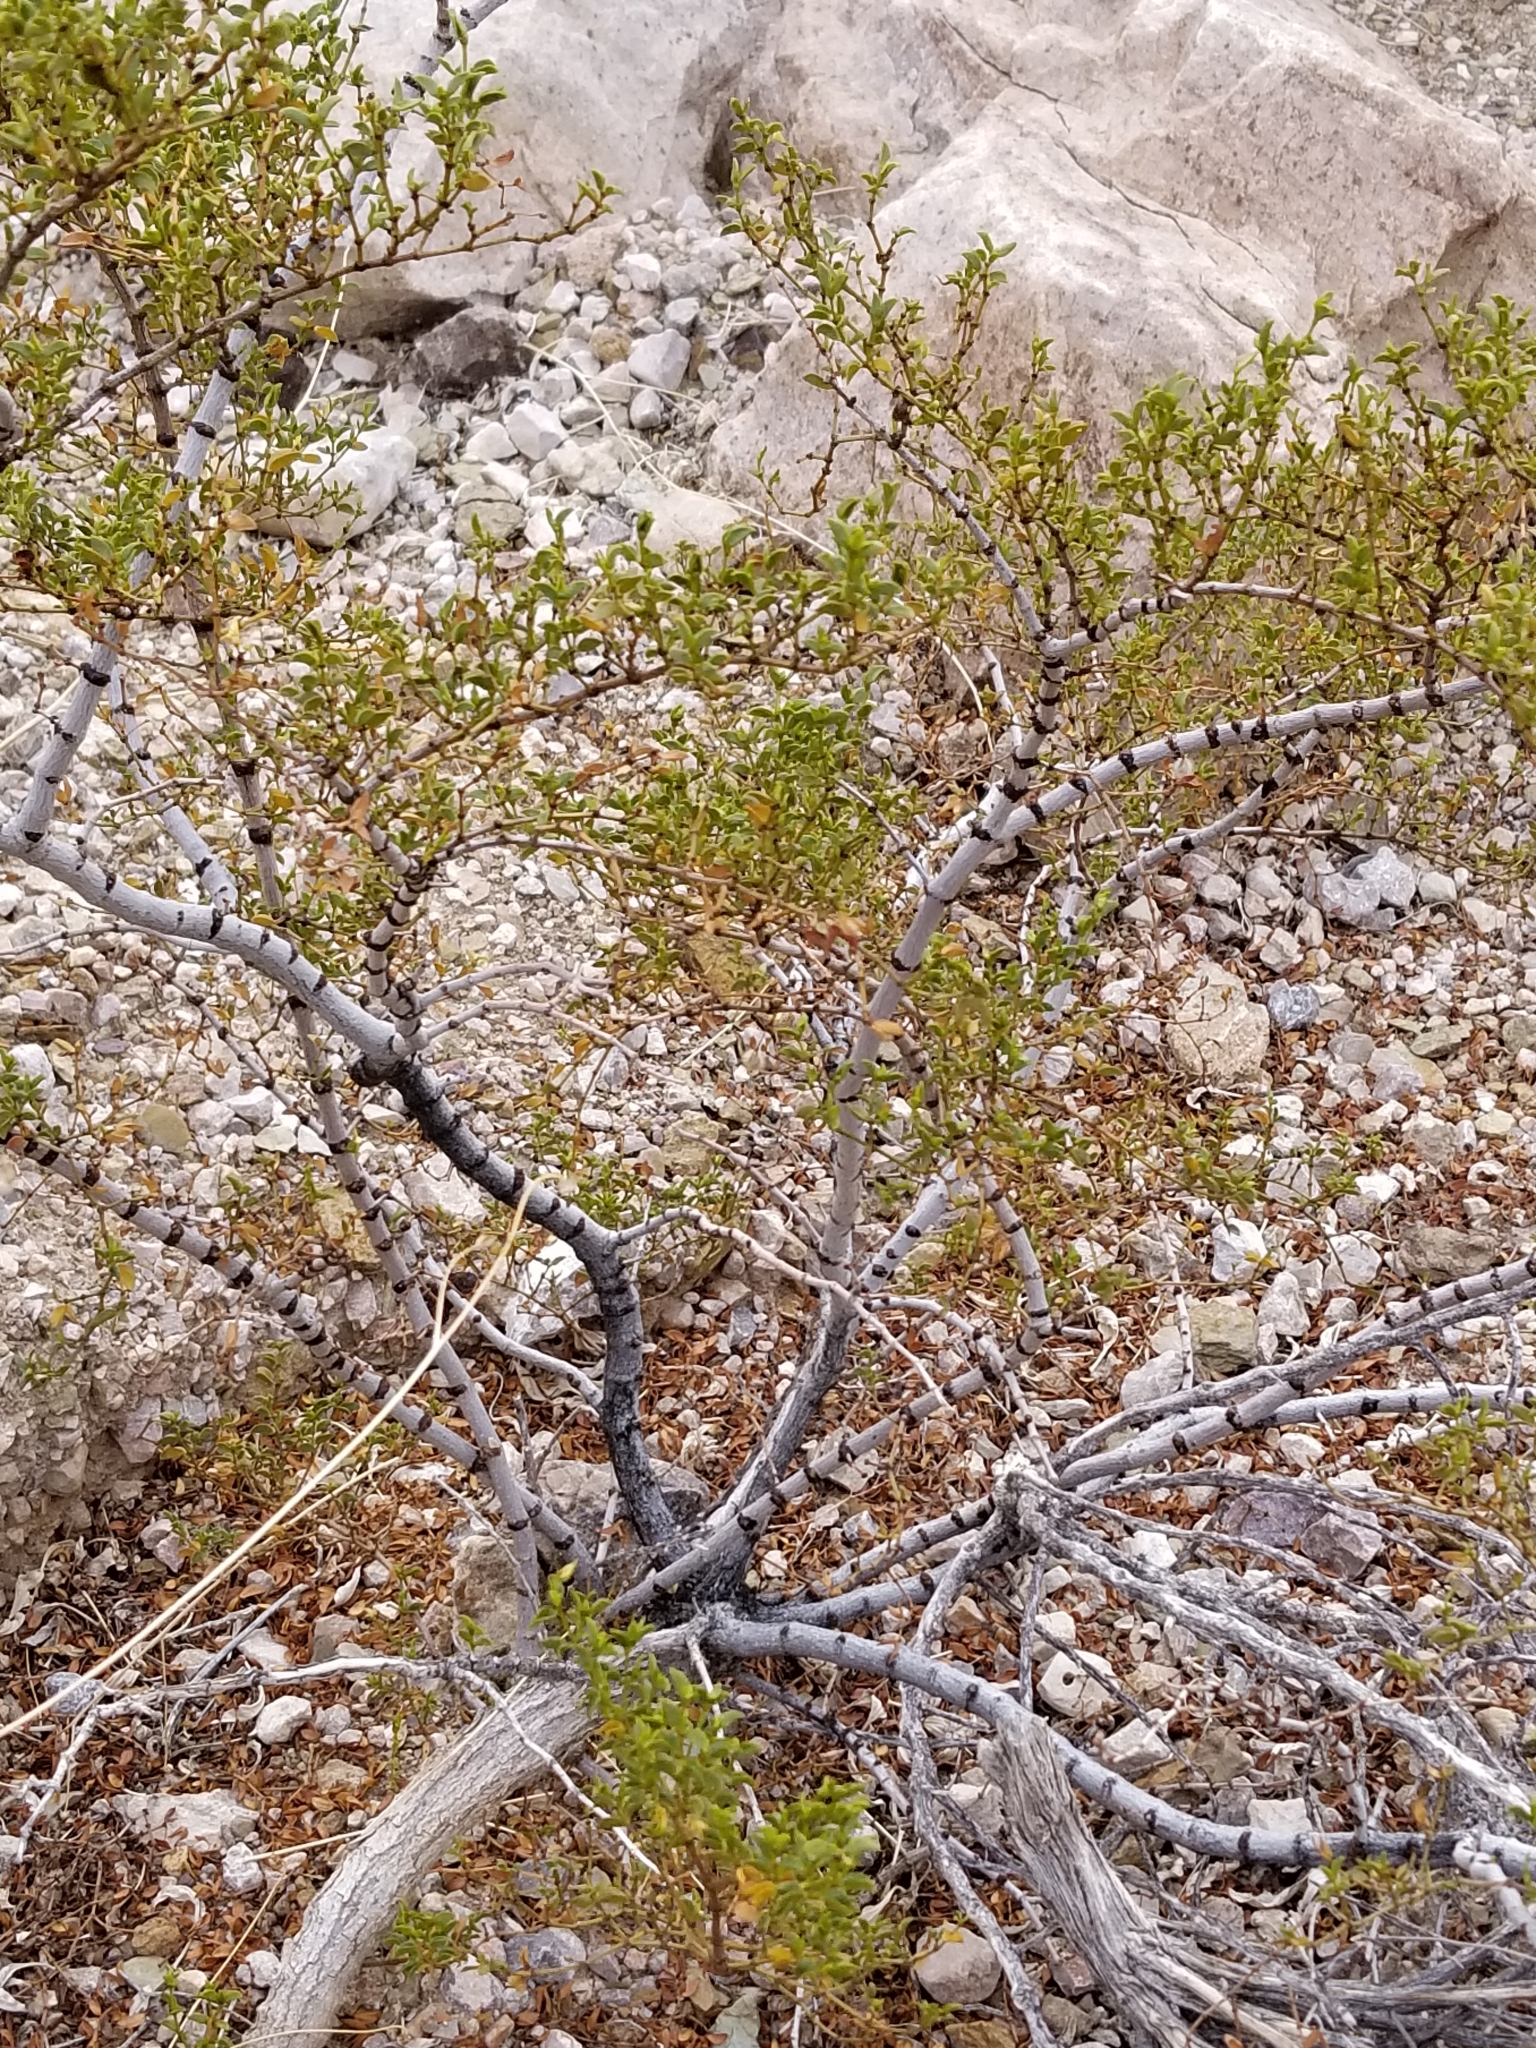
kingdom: Plantae
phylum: Tracheophyta
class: Magnoliopsida
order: Zygophyllales
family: Zygophyllaceae
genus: Larrea
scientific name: Larrea tridentata
